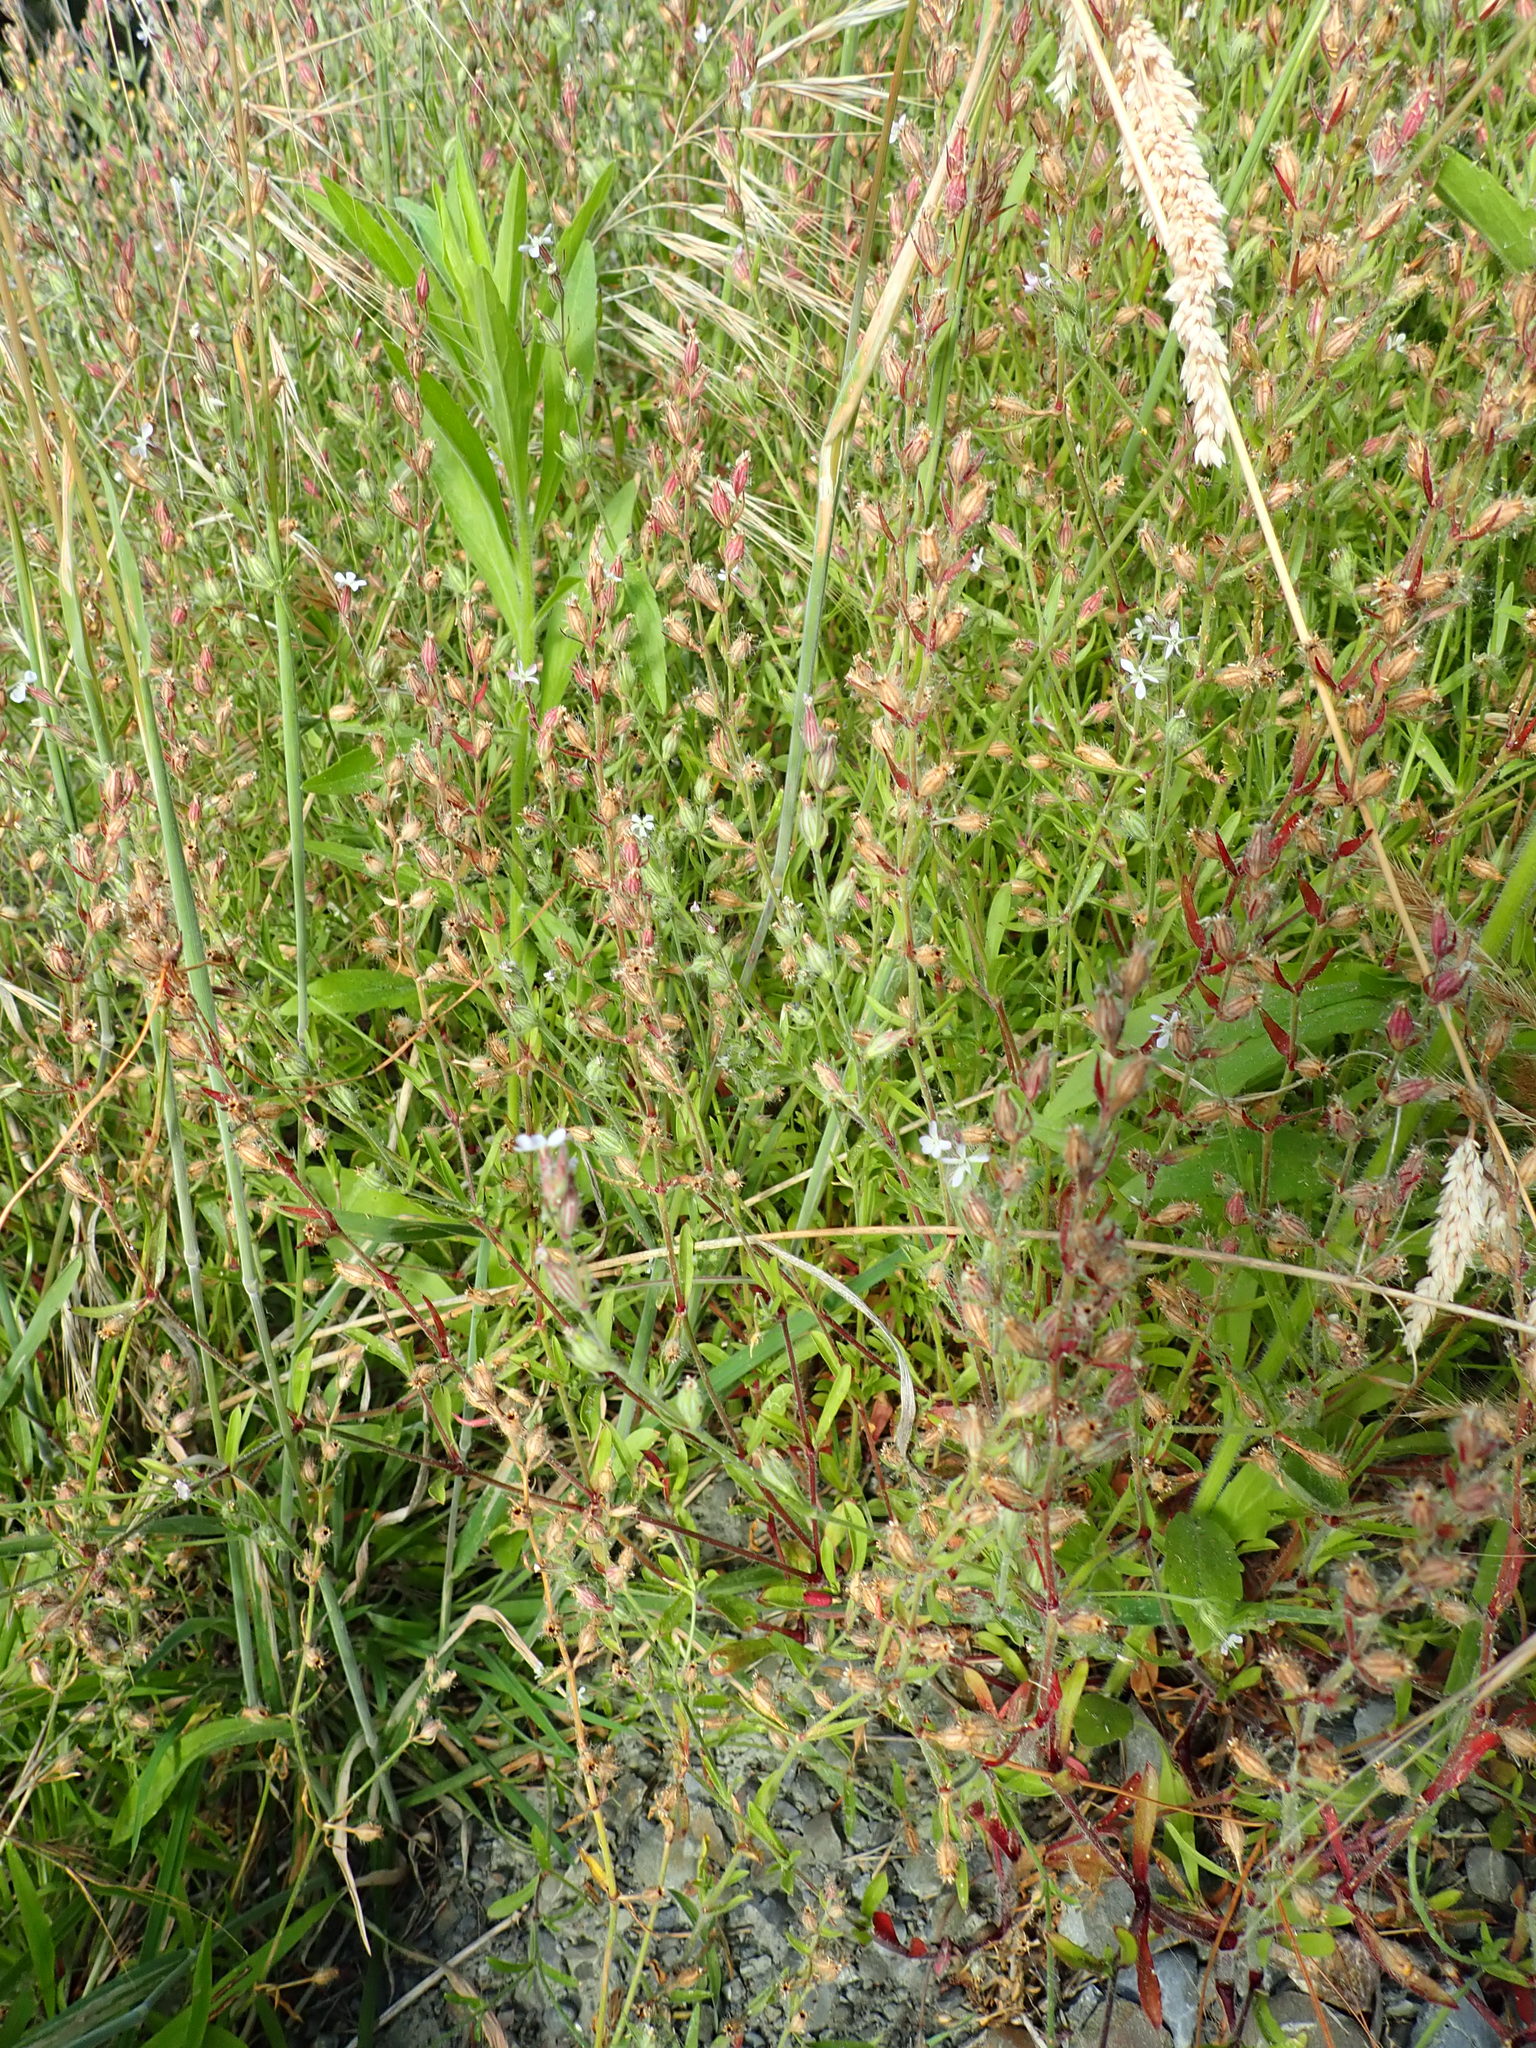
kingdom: Plantae
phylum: Tracheophyta
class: Magnoliopsida
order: Caryophyllales
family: Caryophyllaceae
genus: Silene
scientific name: Silene gallica
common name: Small-flowered catchfly
